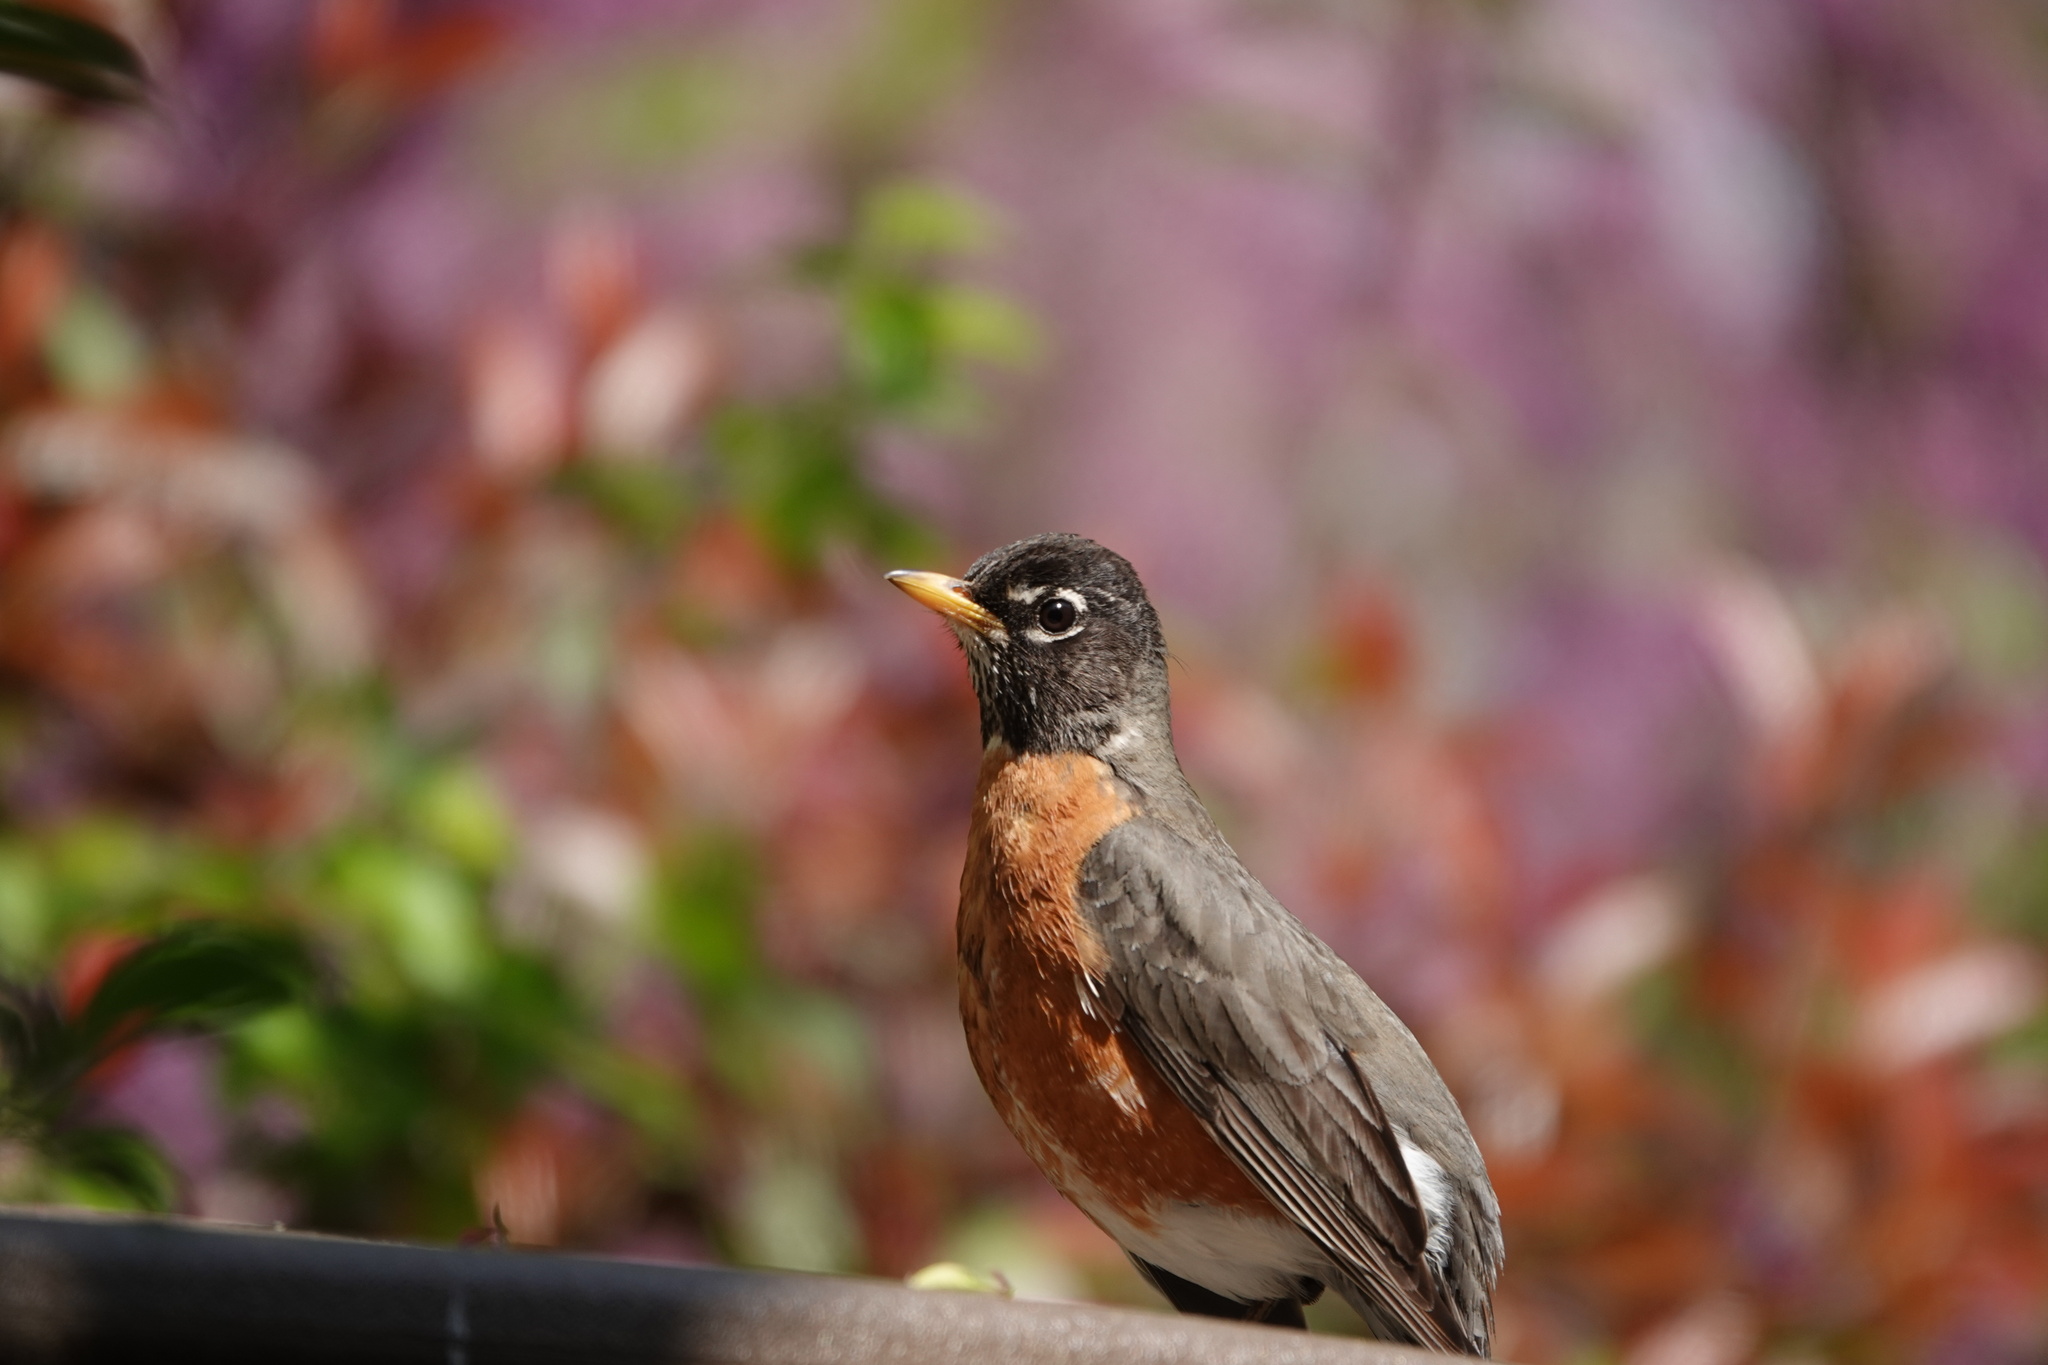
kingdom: Animalia
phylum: Chordata
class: Aves
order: Passeriformes
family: Turdidae
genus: Turdus
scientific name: Turdus migratorius
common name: American robin
